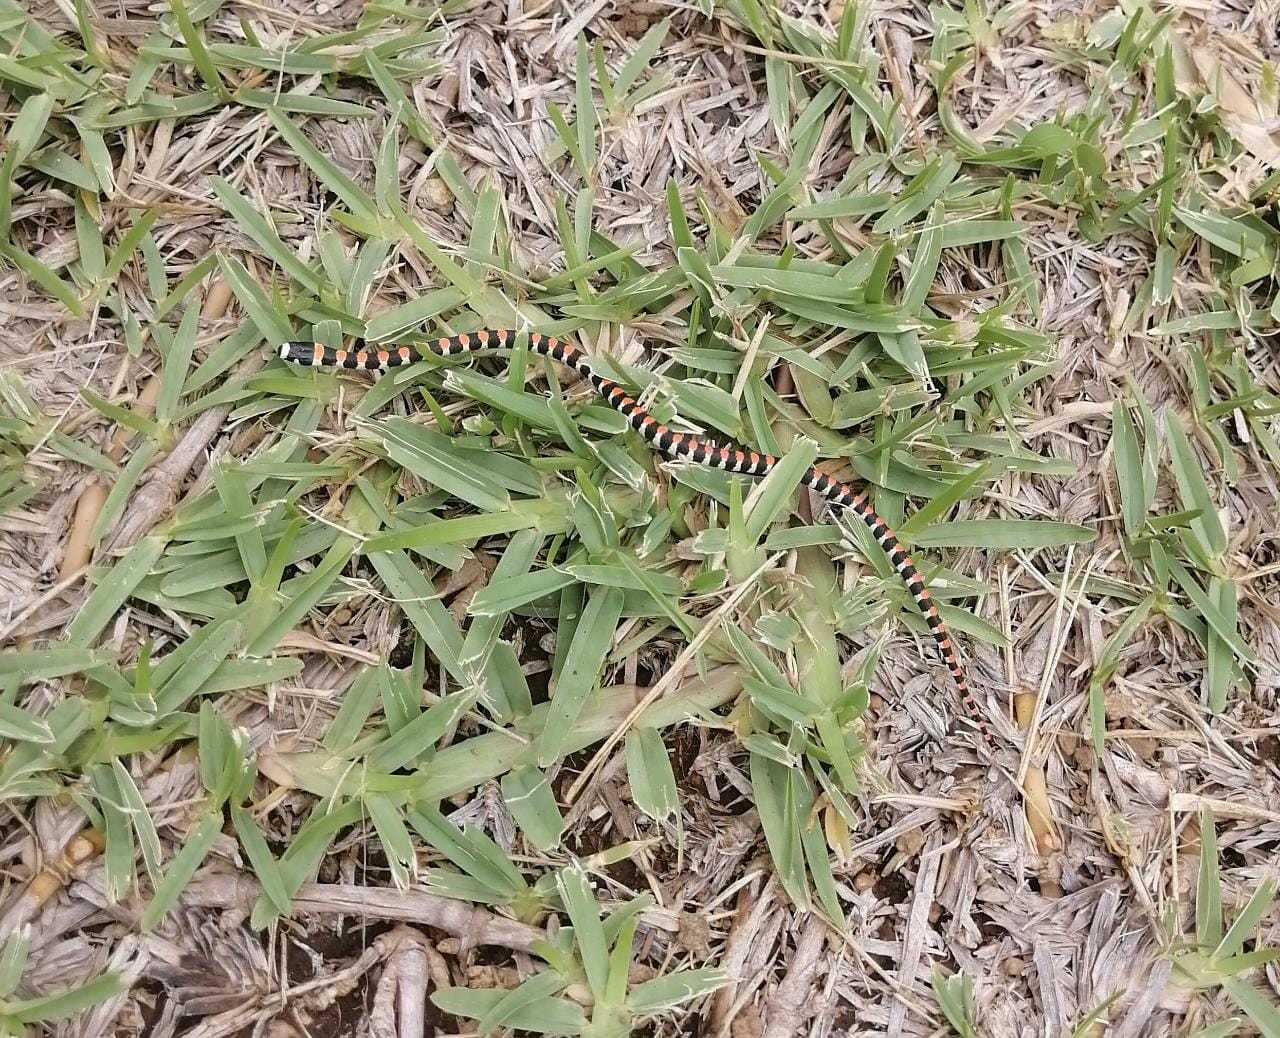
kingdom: Animalia
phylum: Chordata
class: Squamata
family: Colubridae
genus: Scolecophis
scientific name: Scolecophis atrocinctus
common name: Black-banded snake
